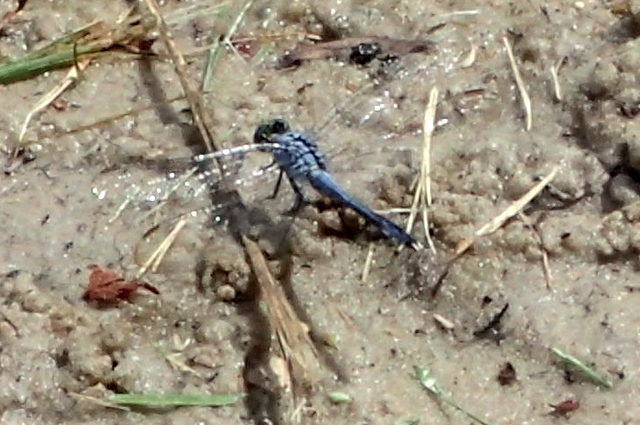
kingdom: Animalia
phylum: Arthropoda
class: Insecta
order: Odonata
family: Libellulidae
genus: Erythemis
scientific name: Erythemis simplicicollis
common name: Eastern pondhawk
